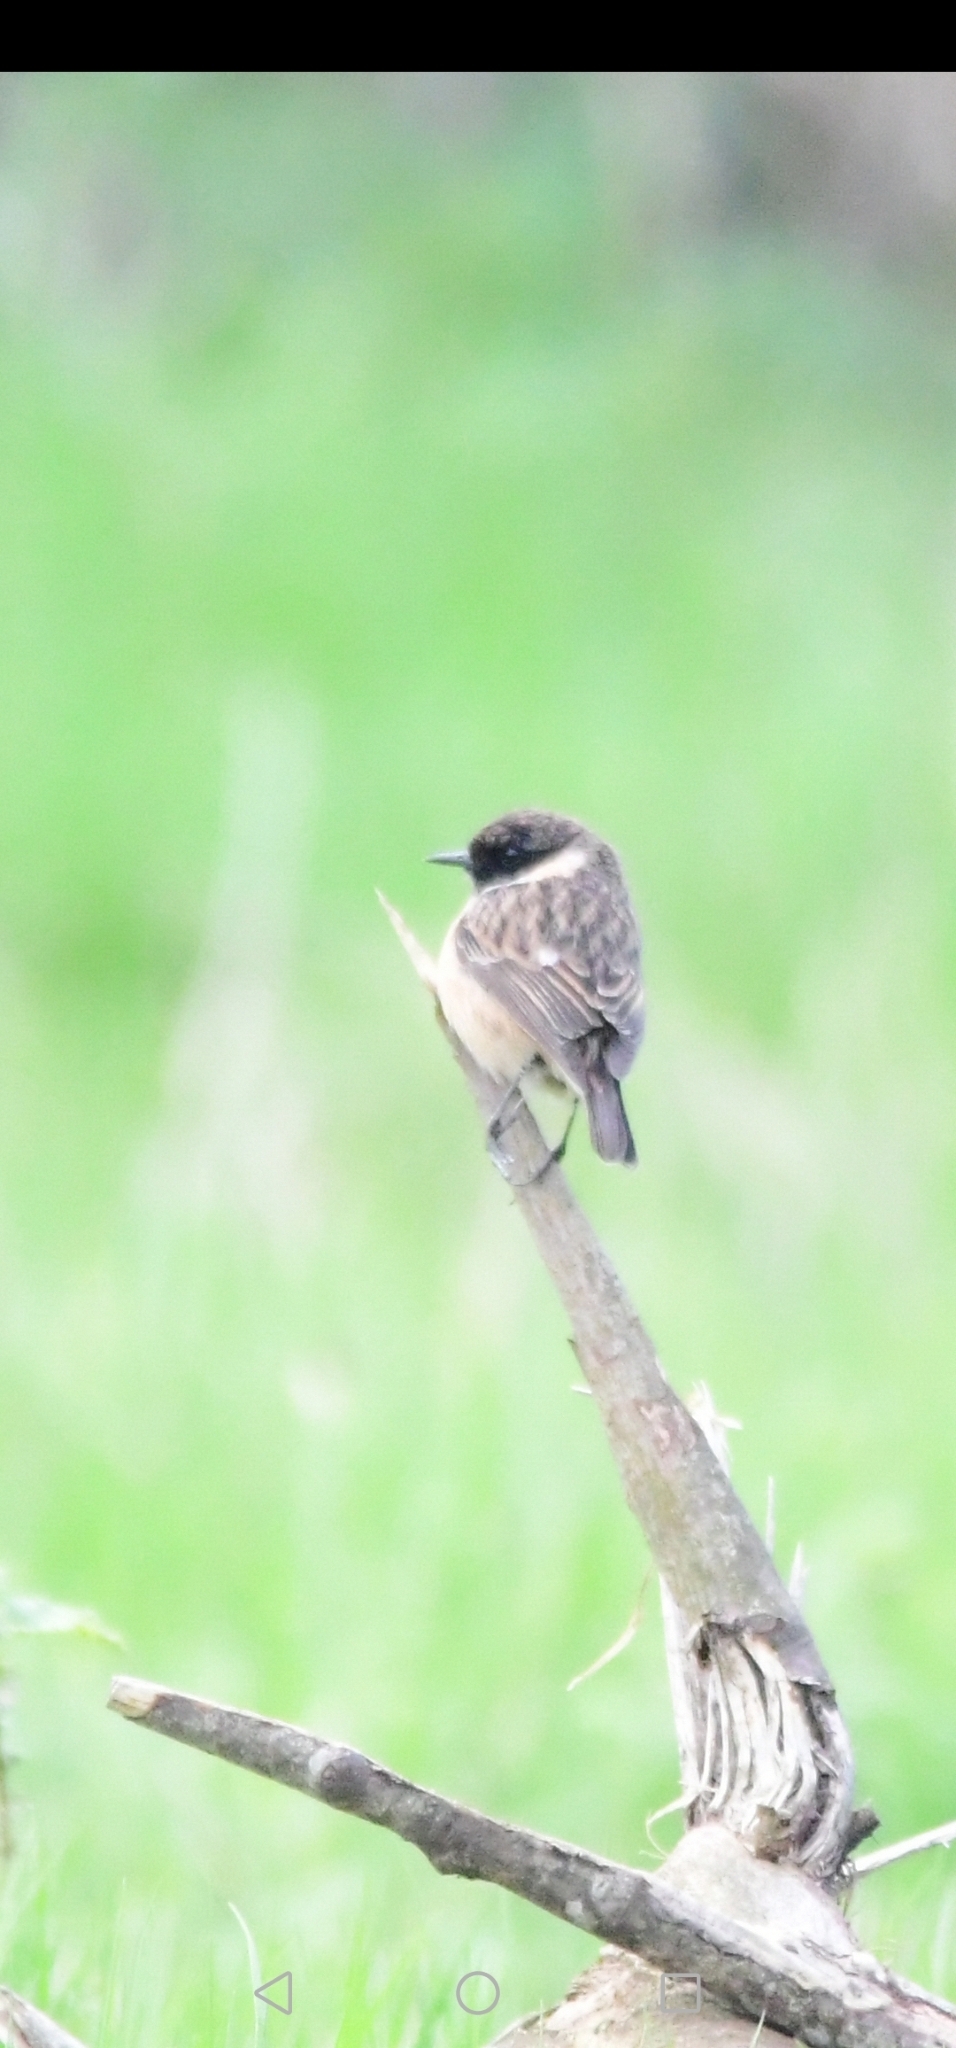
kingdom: Animalia
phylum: Chordata
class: Aves
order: Passeriformes
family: Muscicapidae
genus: Saxicola
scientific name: Saxicola rubicola
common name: European stonechat
